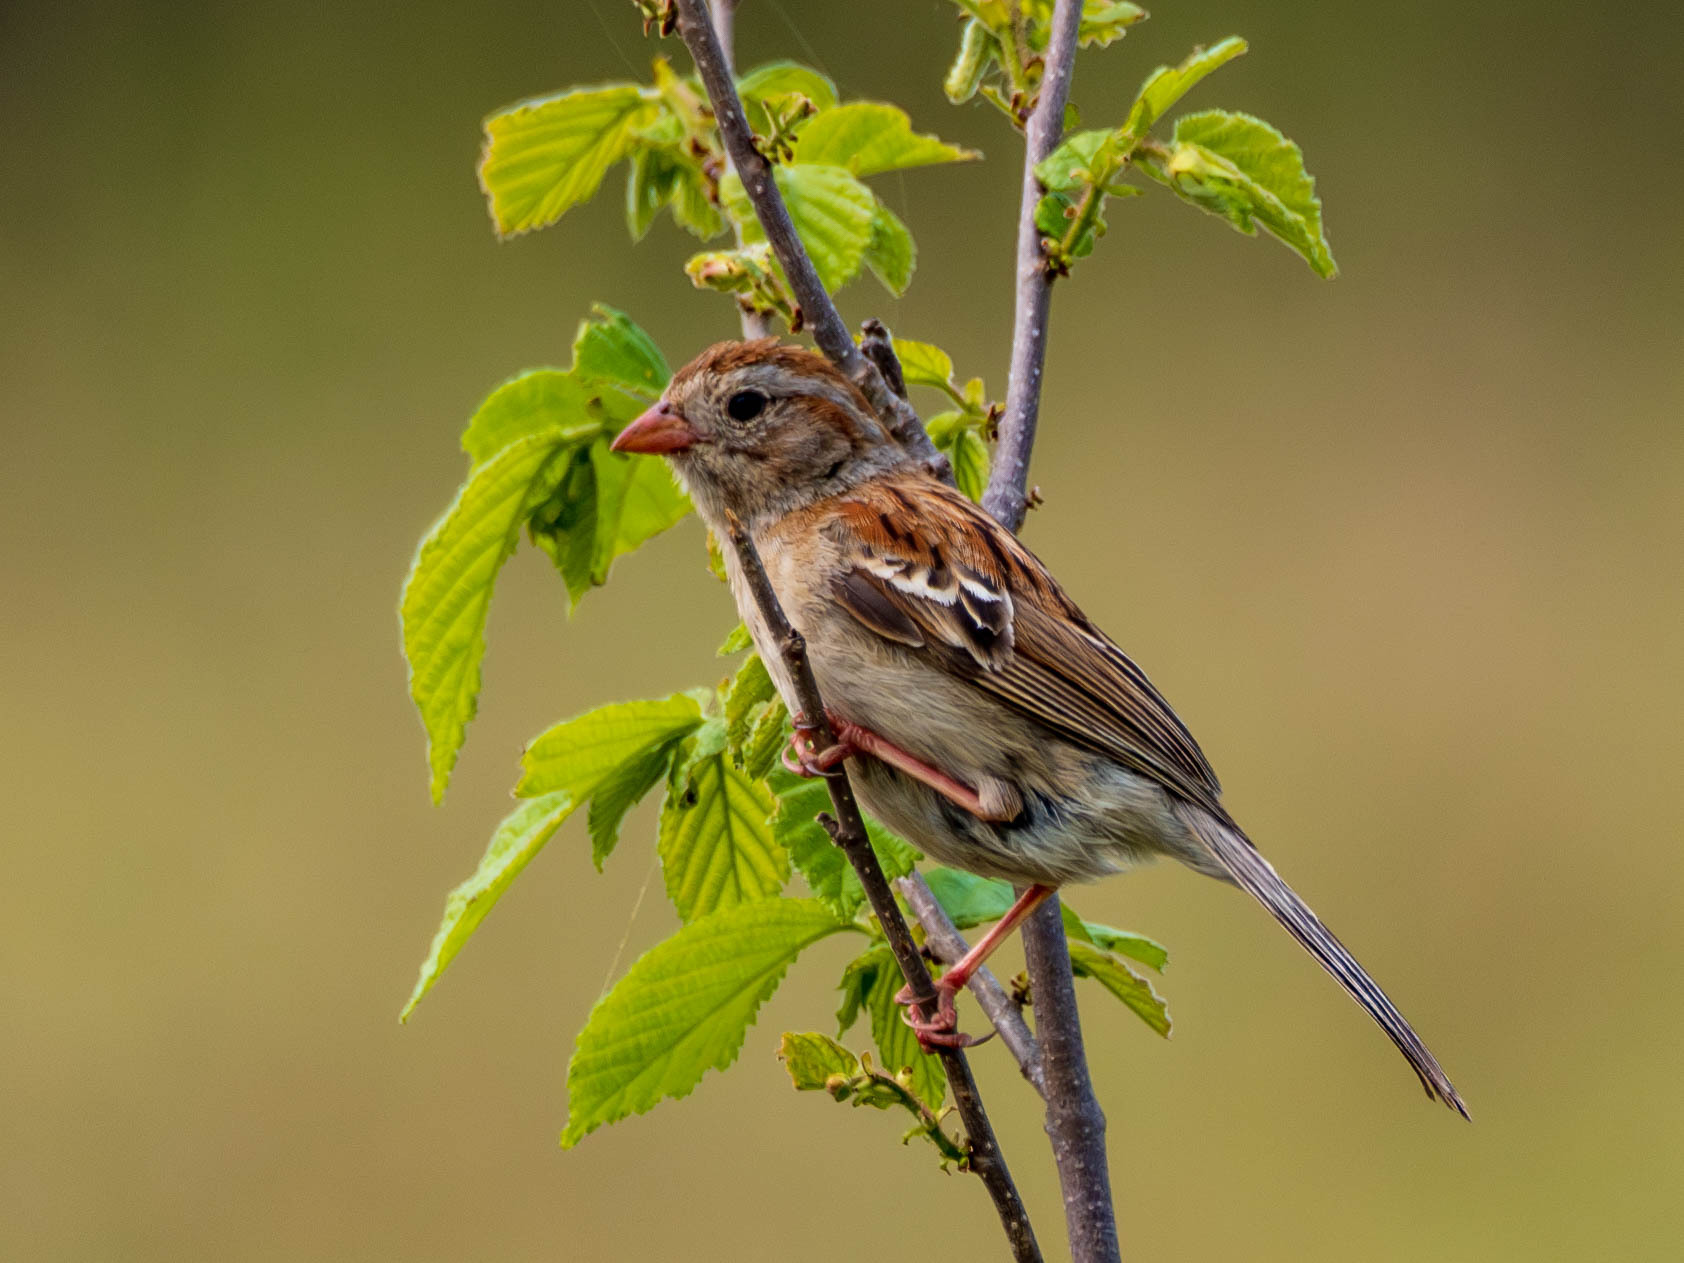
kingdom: Animalia
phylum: Chordata
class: Aves
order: Passeriformes
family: Passerellidae
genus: Spizella
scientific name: Spizella pusilla
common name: Field sparrow
